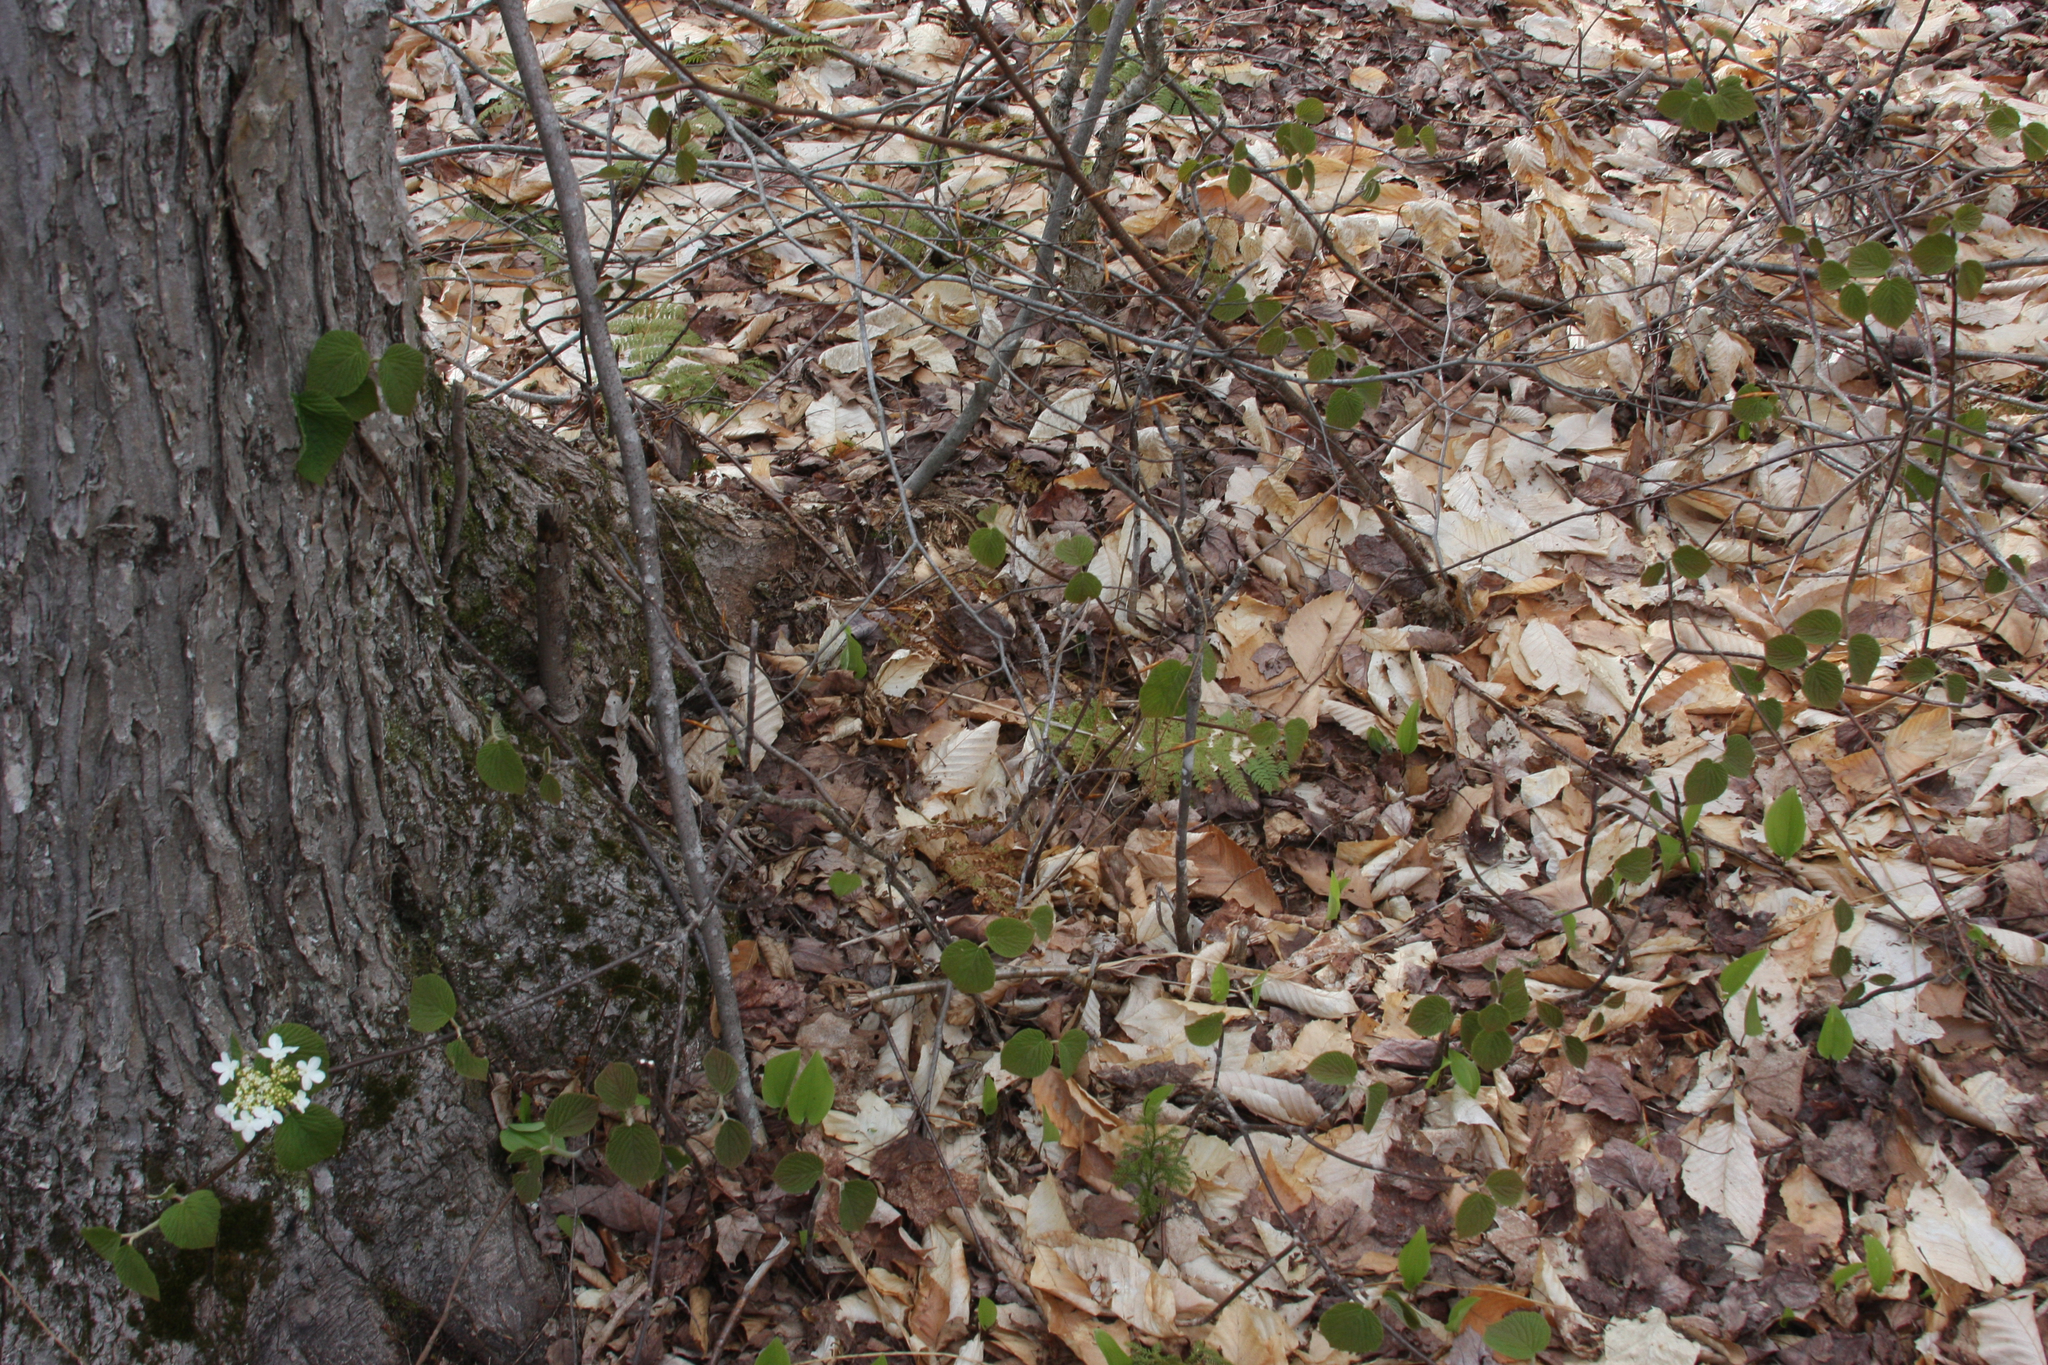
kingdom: Plantae
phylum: Tracheophyta
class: Magnoliopsida
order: Dipsacales
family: Viburnaceae
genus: Viburnum
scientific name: Viburnum lantanoides
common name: Hobblebush
